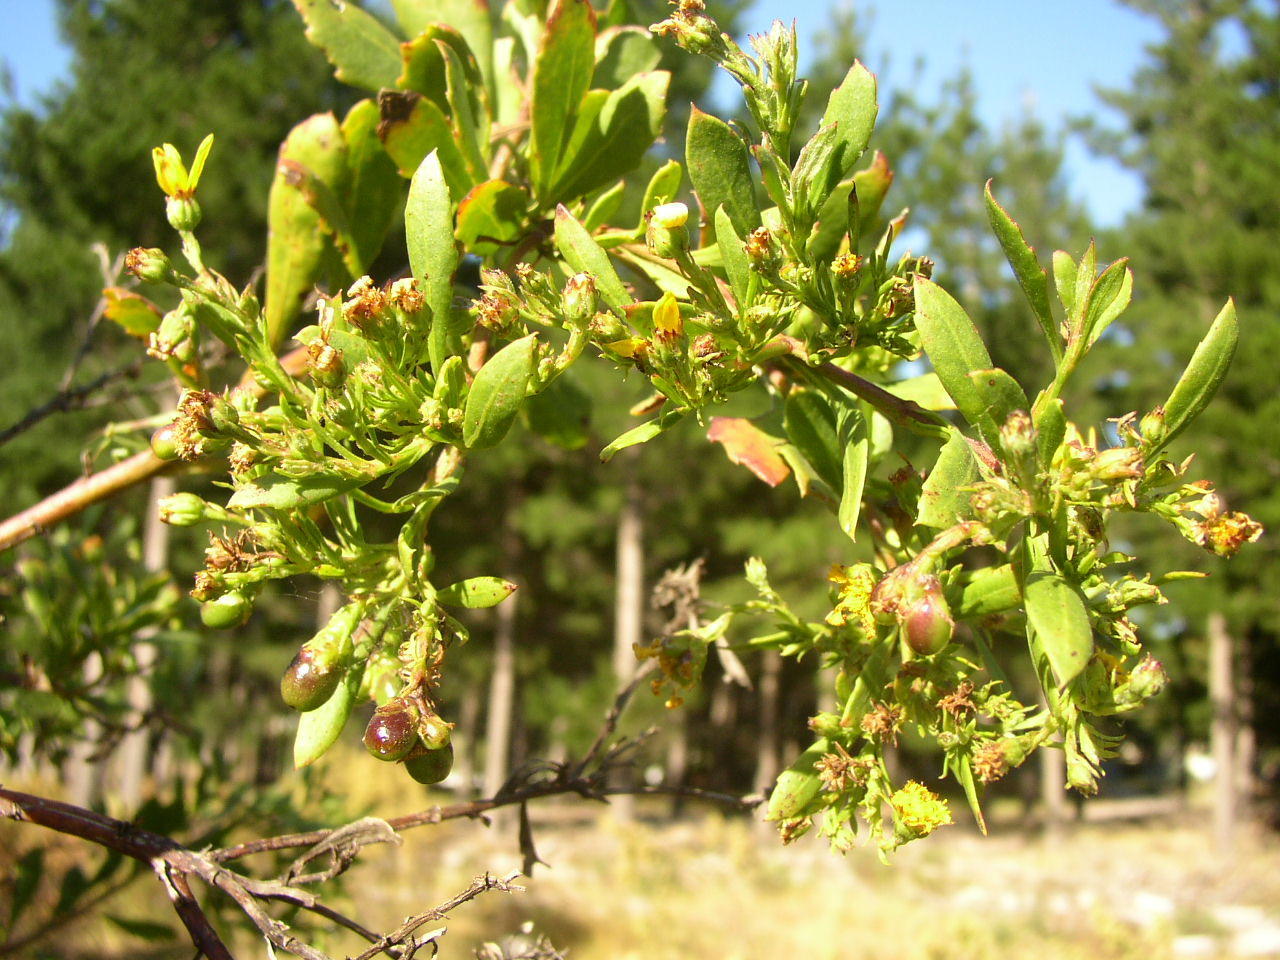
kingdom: Plantae
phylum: Tracheophyta
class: Magnoliopsida
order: Asterales
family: Asteraceae
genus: Osteospermum
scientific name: Osteospermum moniliferum
